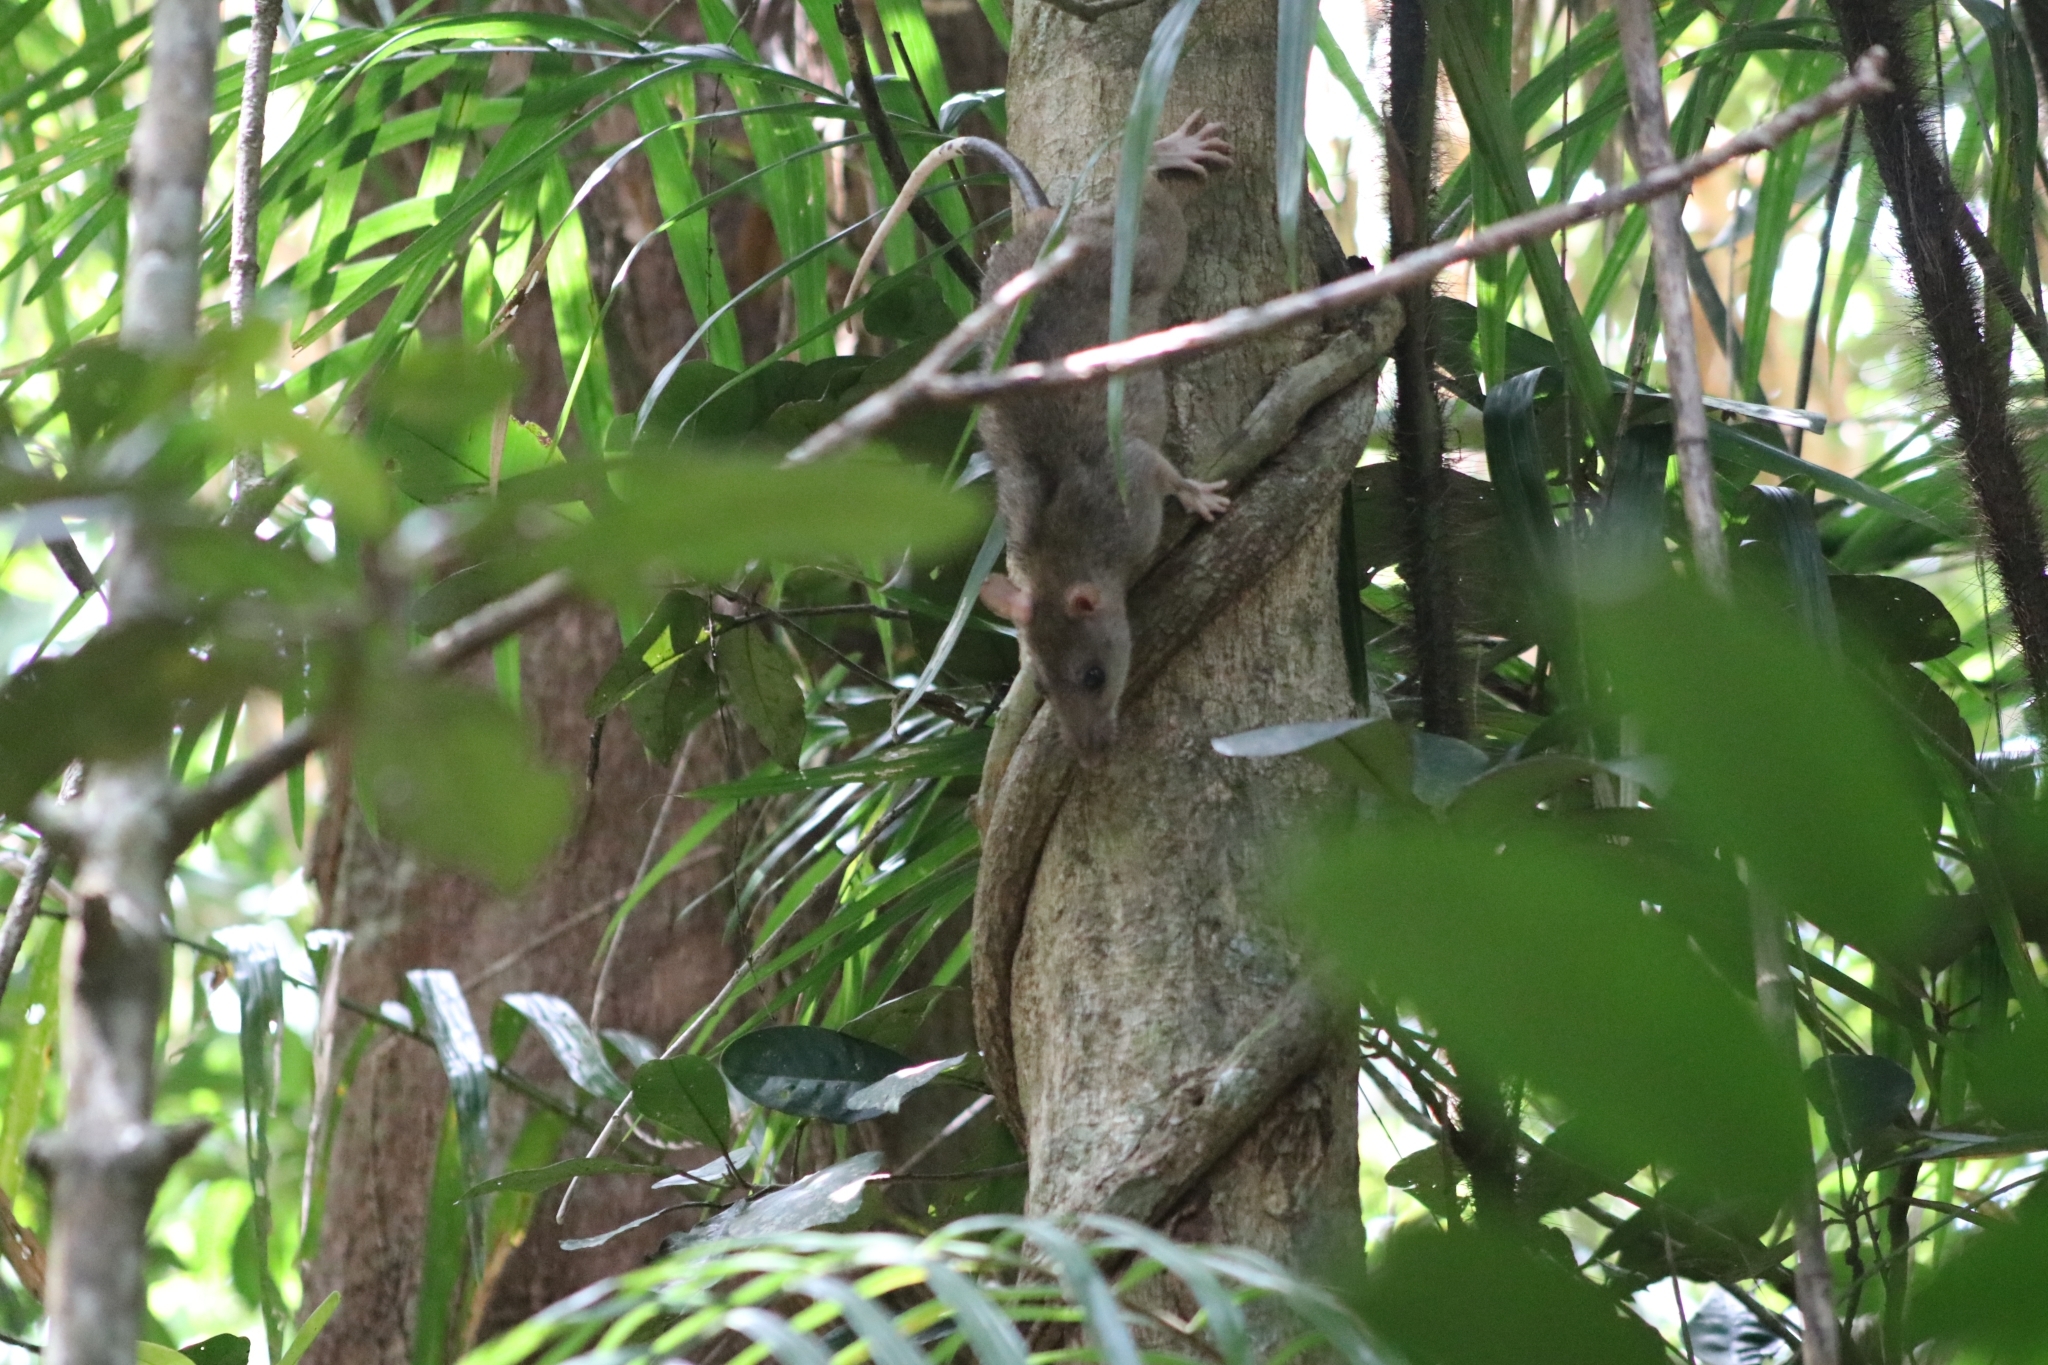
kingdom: Animalia
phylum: Chordata
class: Mammalia
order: Rodentia
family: Muridae
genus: Uromys
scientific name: Uromys caudimaculatus
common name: Giant white-tailed uromys
